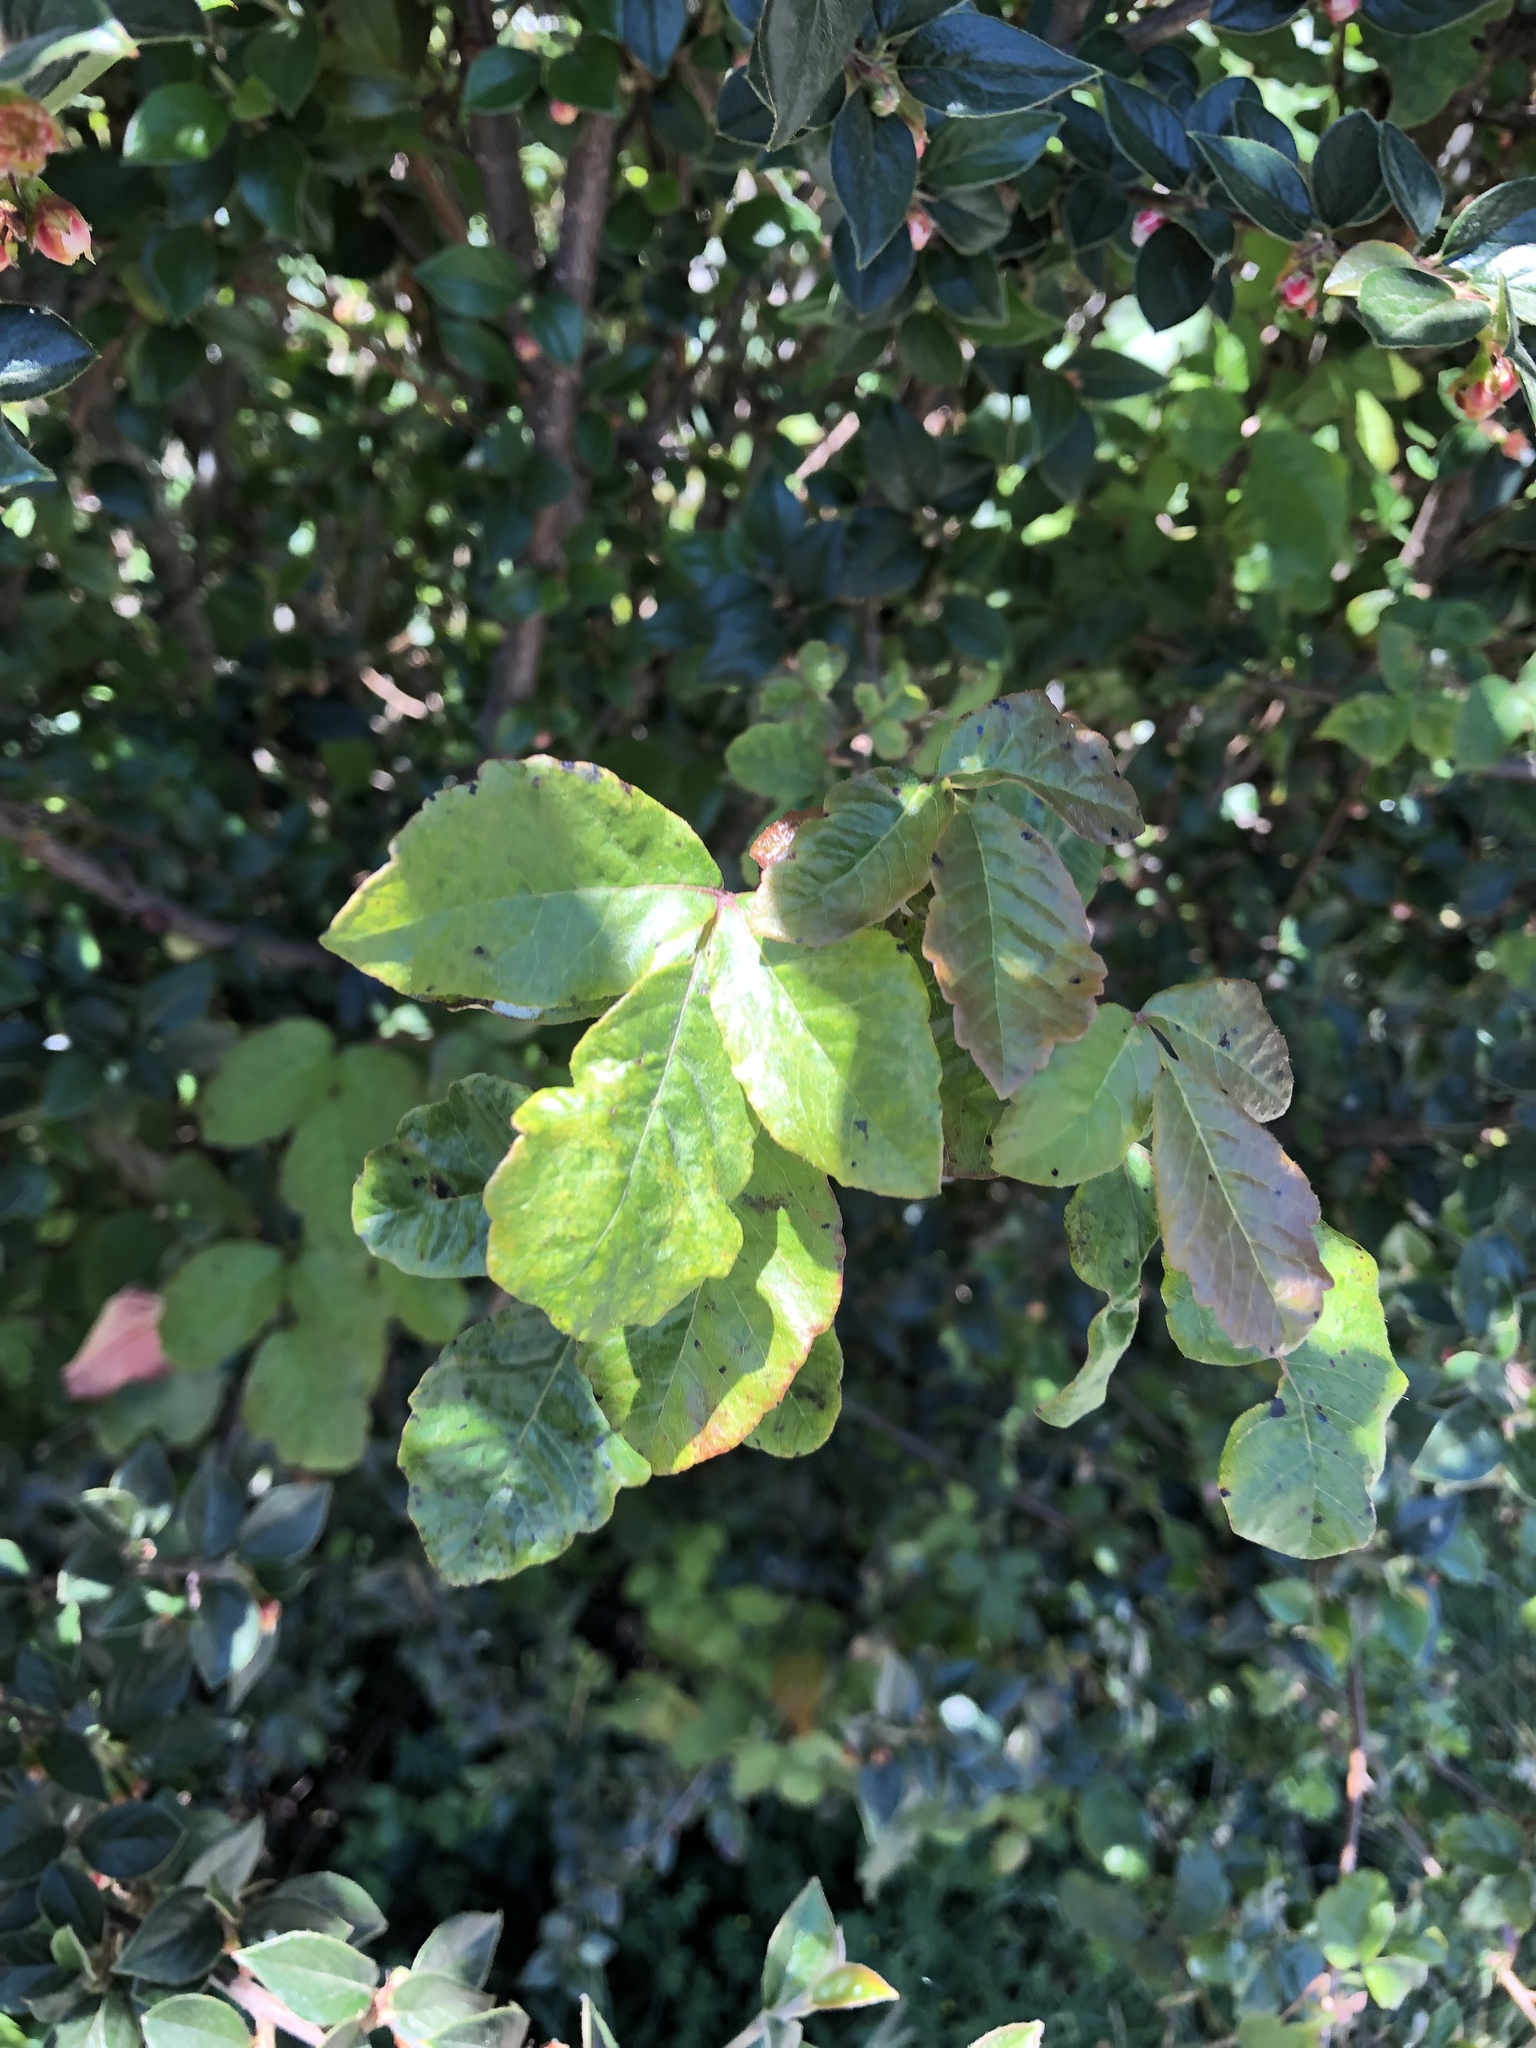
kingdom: Plantae
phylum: Tracheophyta
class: Magnoliopsida
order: Sapindales
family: Anacardiaceae
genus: Toxicodendron
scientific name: Toxicodendron diversilobum
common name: Pacific poison-oak
